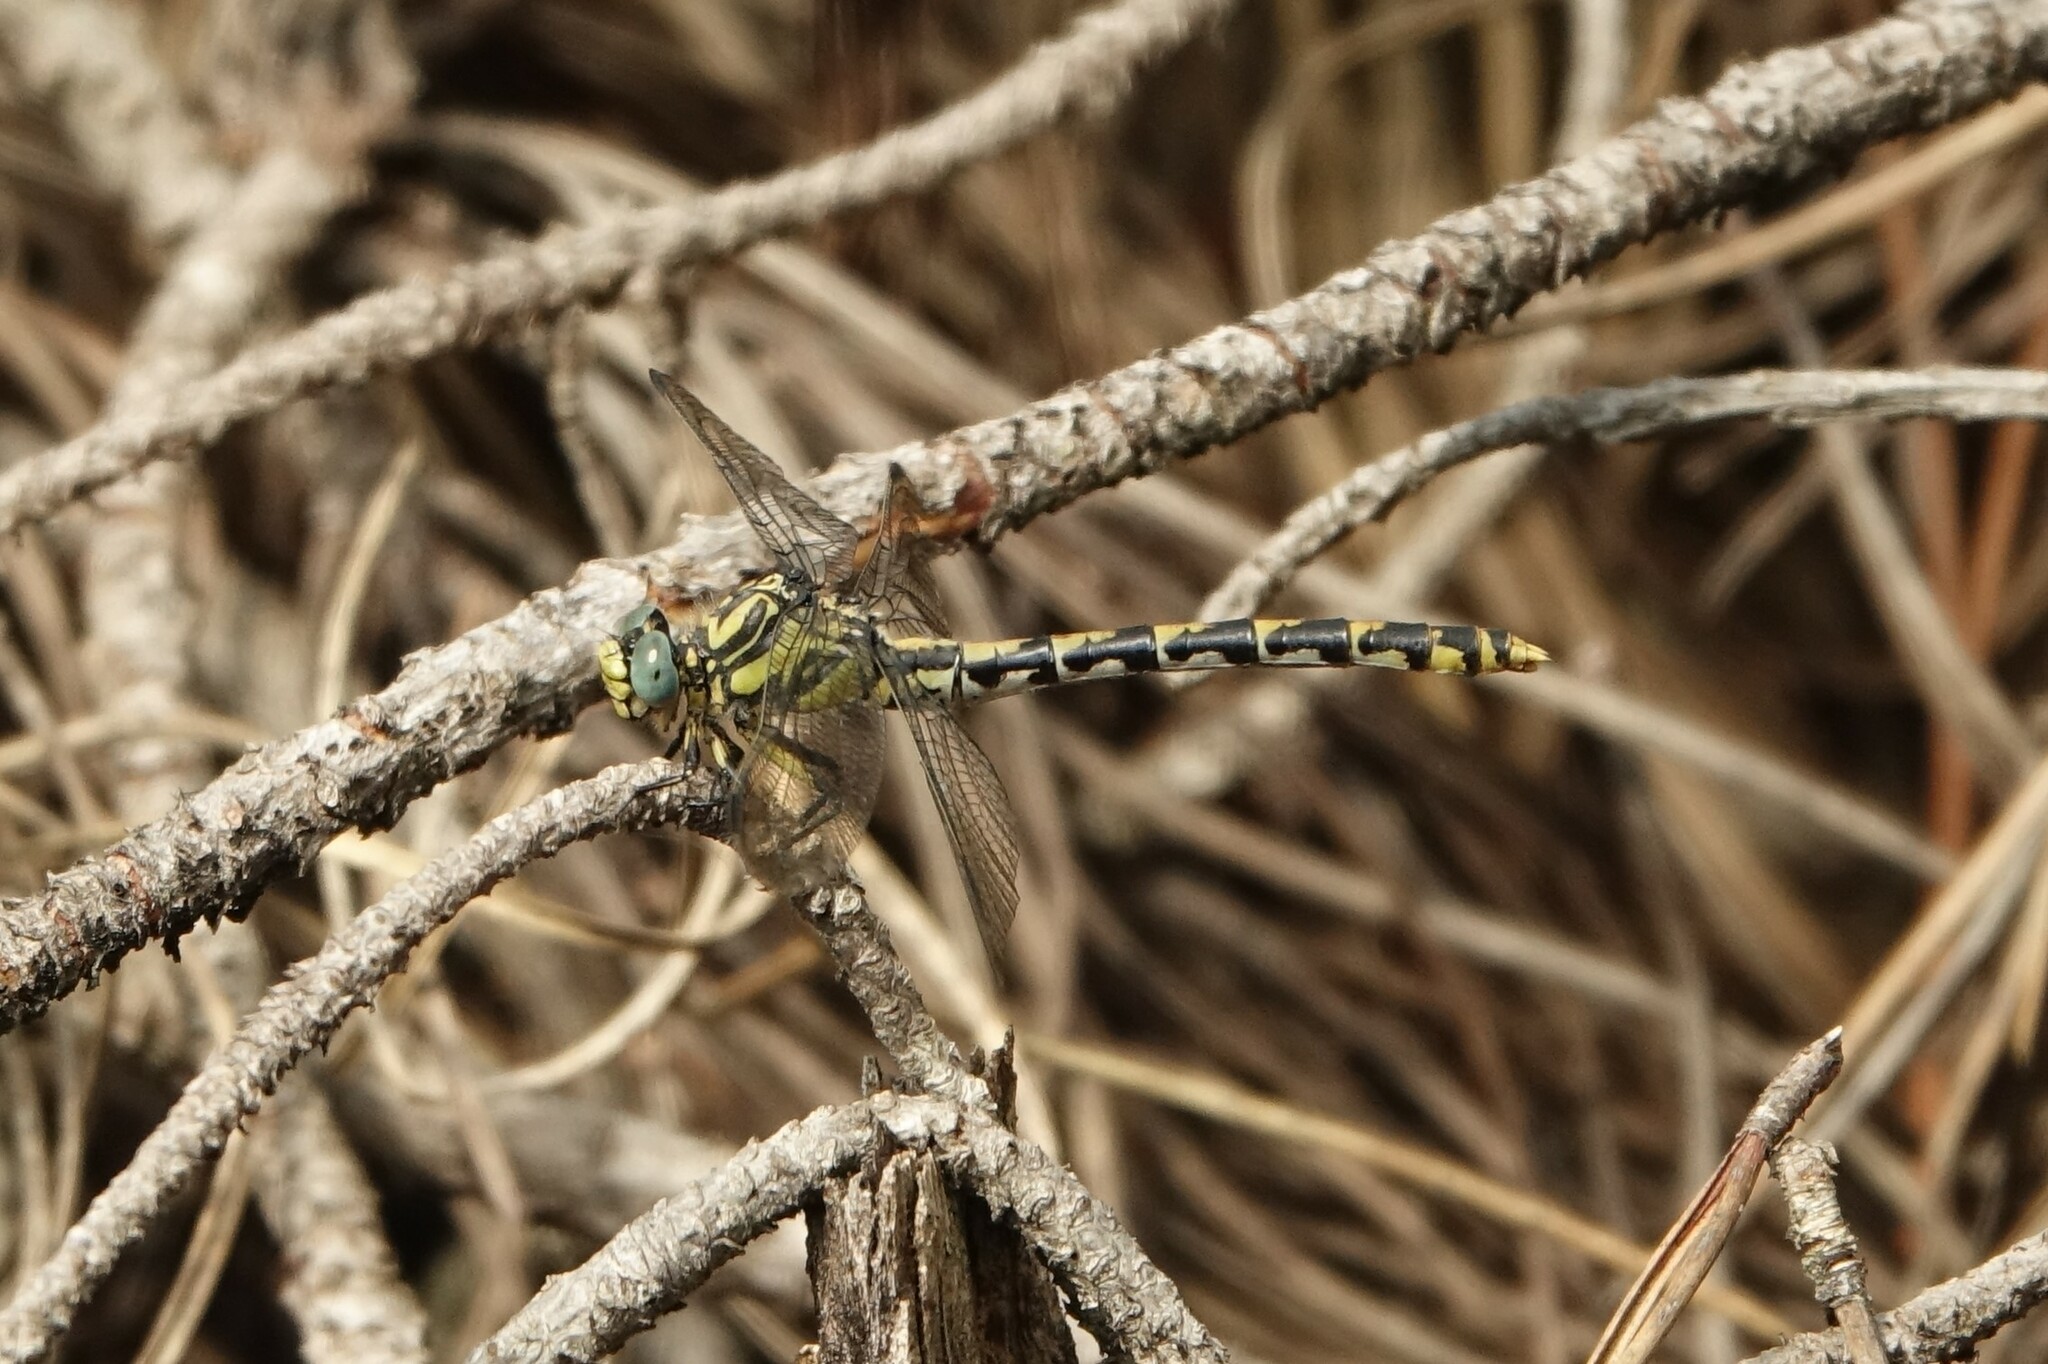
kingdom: Animalia
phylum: Arthropoda
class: Insecta
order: Odonata
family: Gomphidae
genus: Onychogomphus
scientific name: Onychogomphus uncatus
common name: Large pincertail
